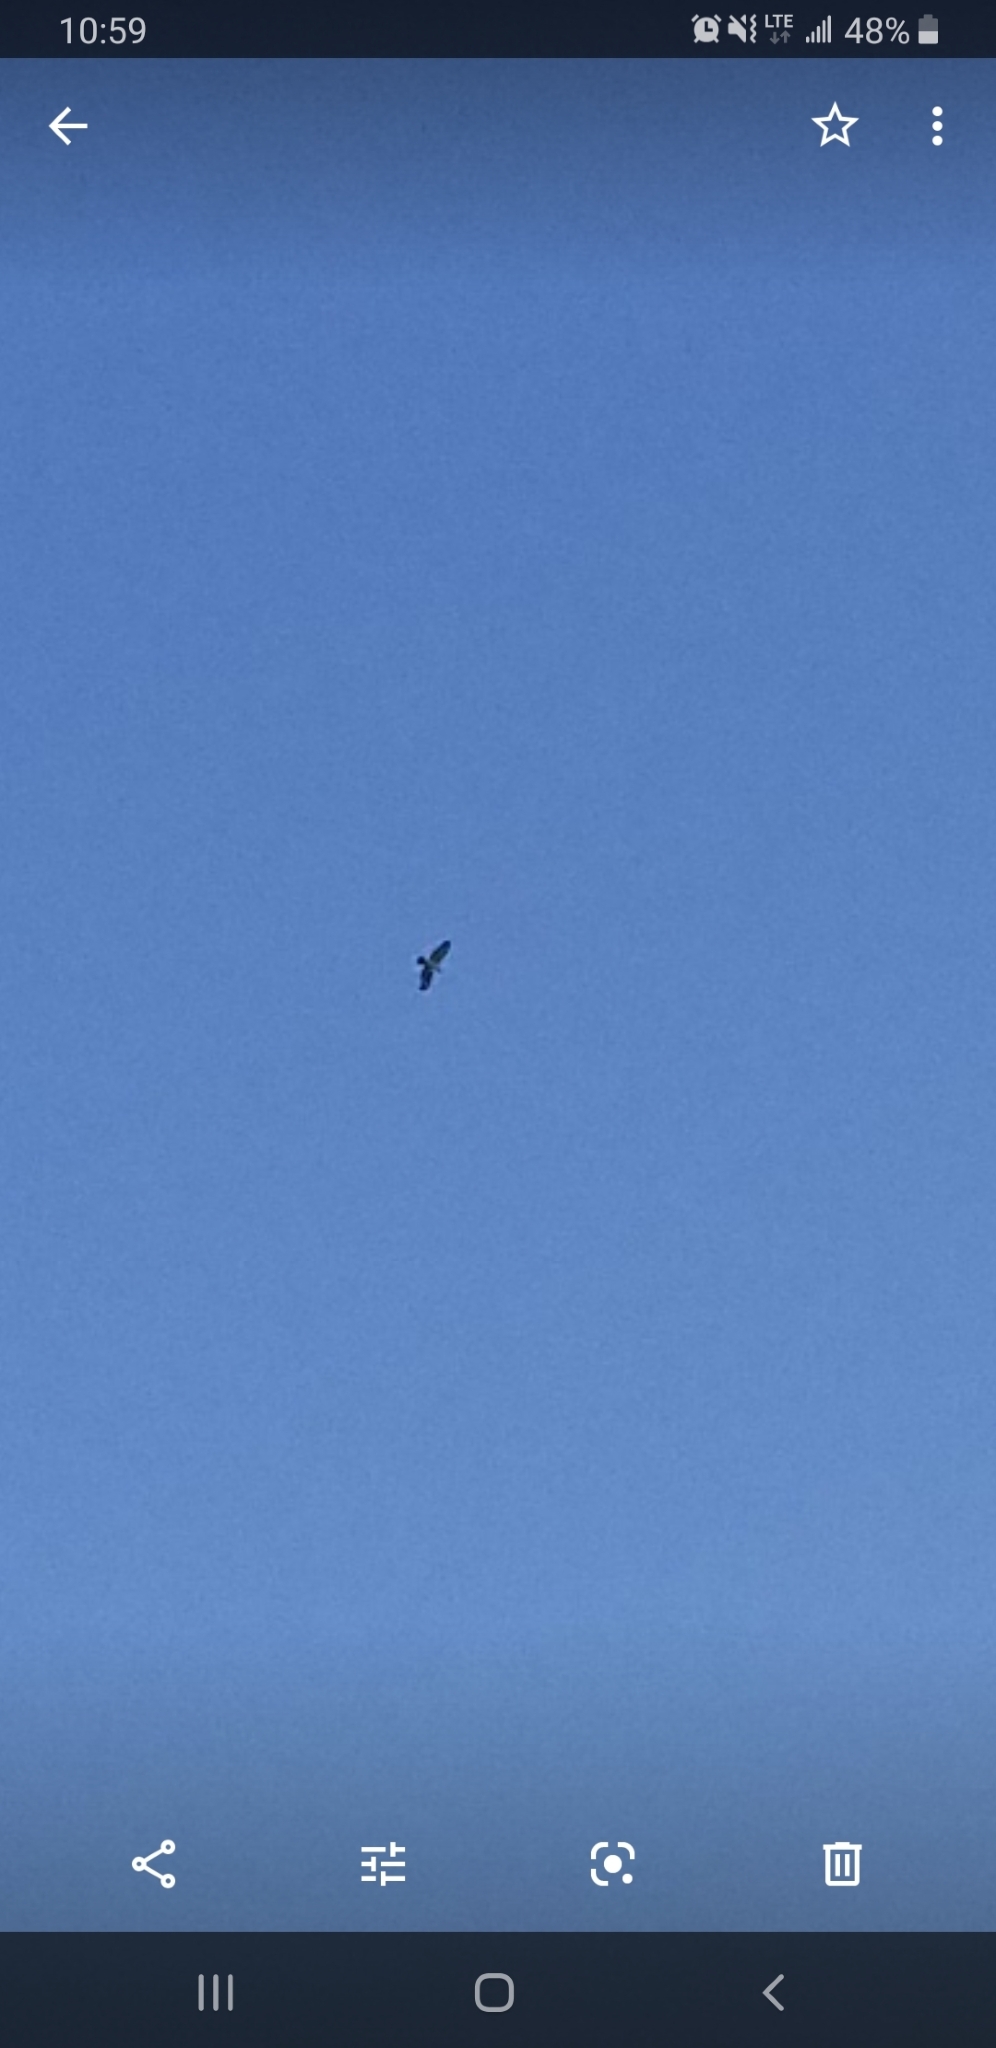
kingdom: Animalia
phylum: Chordata
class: Aves
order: Accipitriformes
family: Accipitridae
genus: Buteo
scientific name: Buteo
